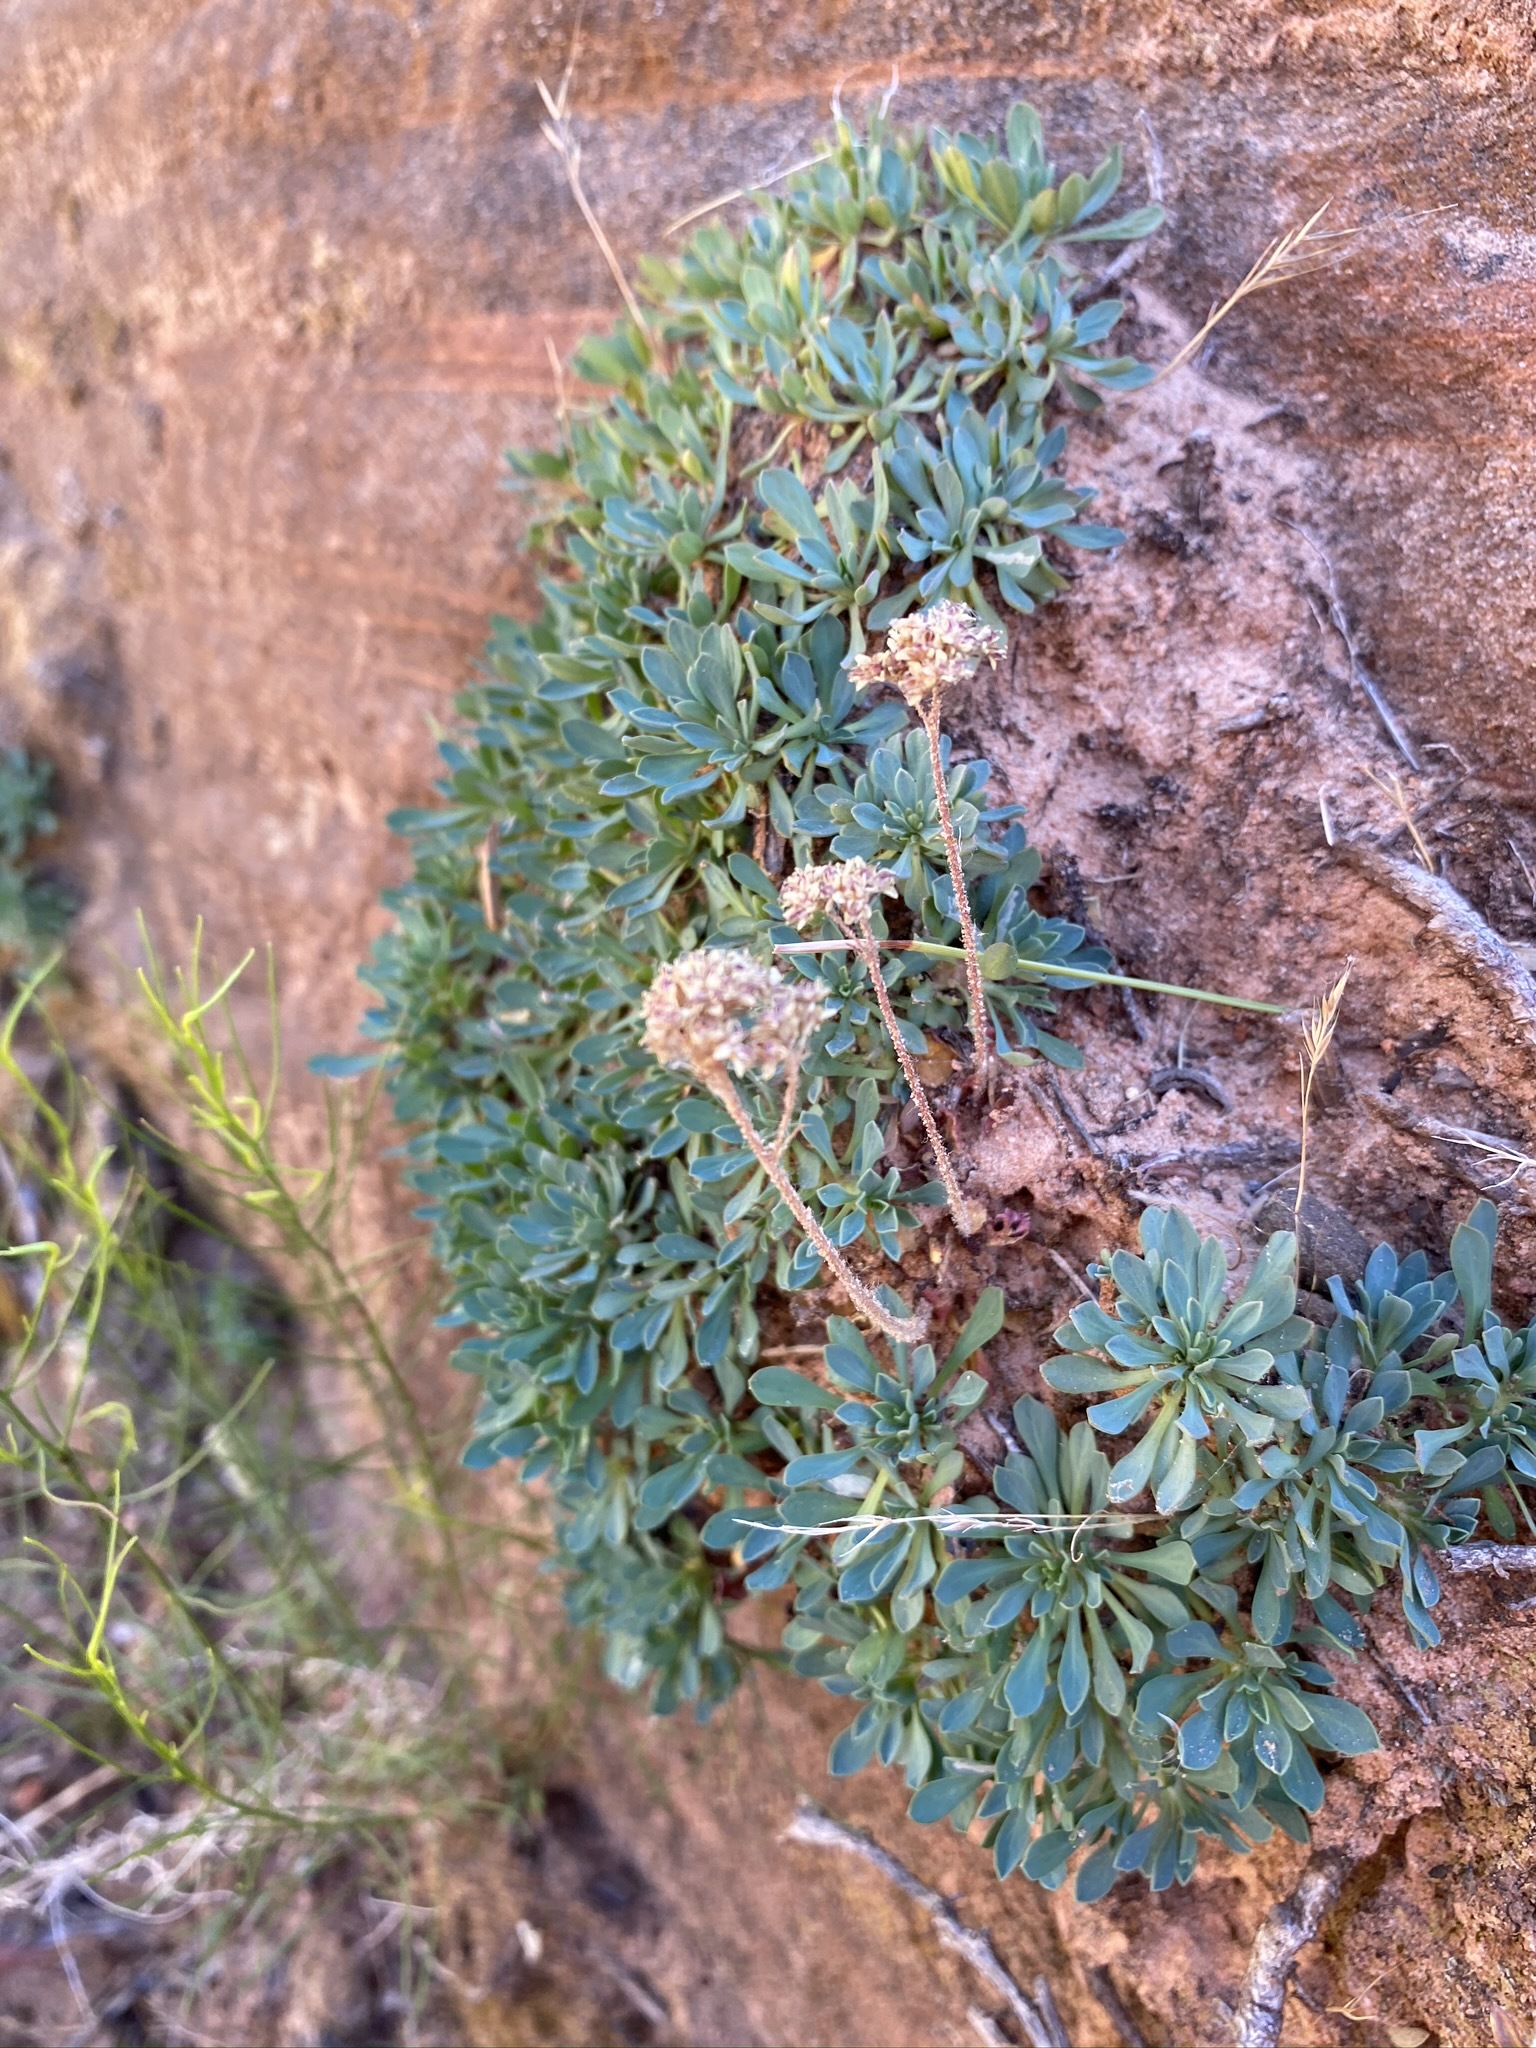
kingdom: Plantae
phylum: Tracheophyta
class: Magnoliopsida
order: Rosales
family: Rosaceae
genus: Petrophytum
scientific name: Petrophytum caespitosum
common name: Mat rockspirea
